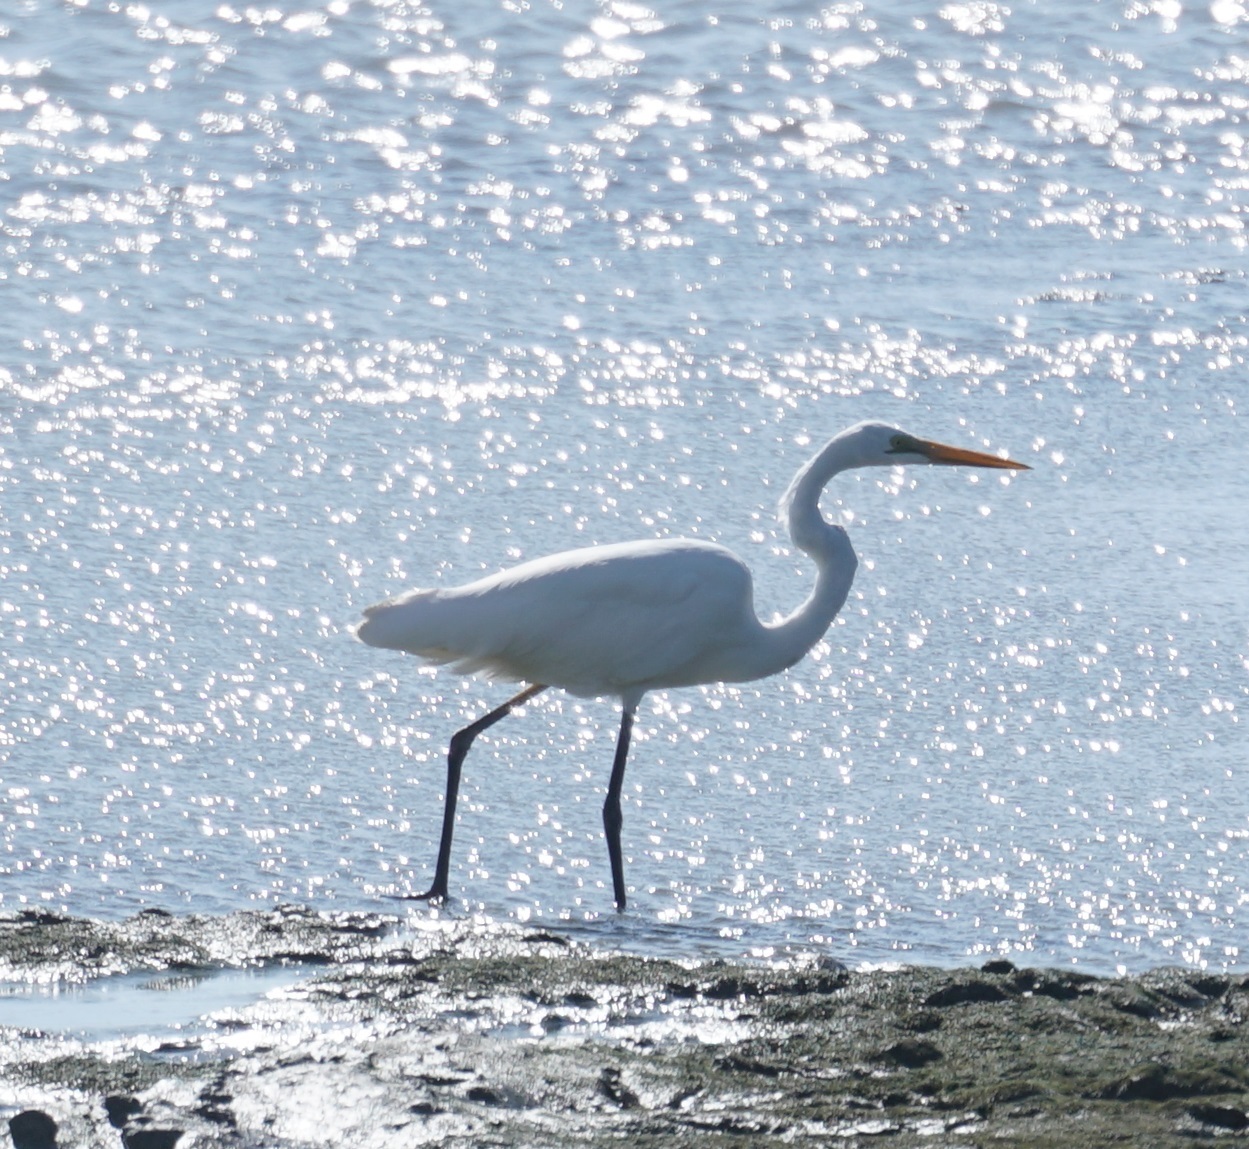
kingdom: Animalia
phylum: Chordata
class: Aves
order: Pelecaniformes
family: Ardeidae
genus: Ardea
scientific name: Ardea alba
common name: Great egret
